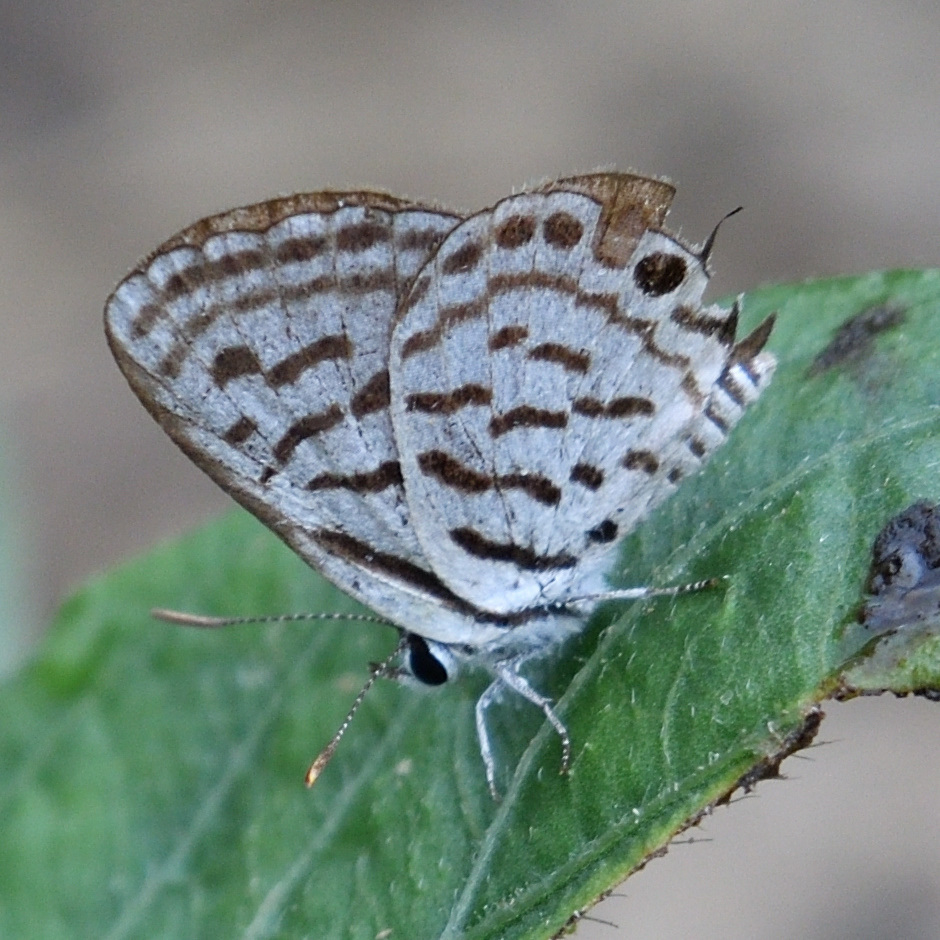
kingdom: Animalia
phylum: Arthropoda
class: Insecta
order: Lepidoptera
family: Lycaenidae
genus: Tarucus
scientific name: Tarucus nara
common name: Striped pierrot
